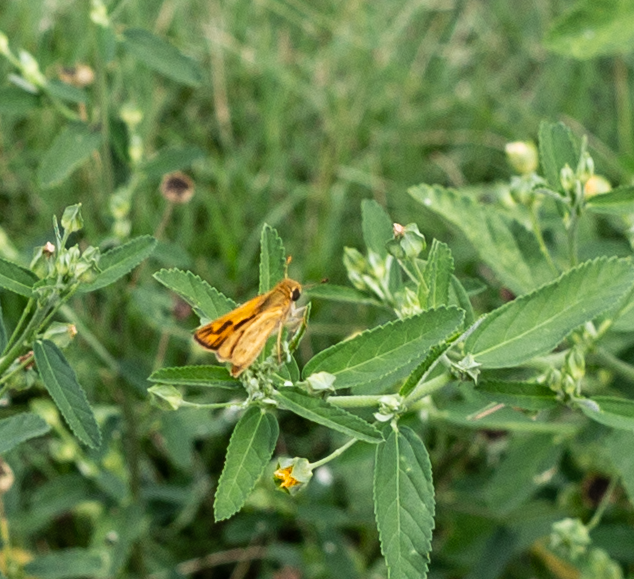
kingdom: Animalia
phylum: Arthropoda
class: Insecta
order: Lepidoptera
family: Hesperiidae
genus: Hylephila
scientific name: Hylephila phyleus
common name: Fiery skipper
